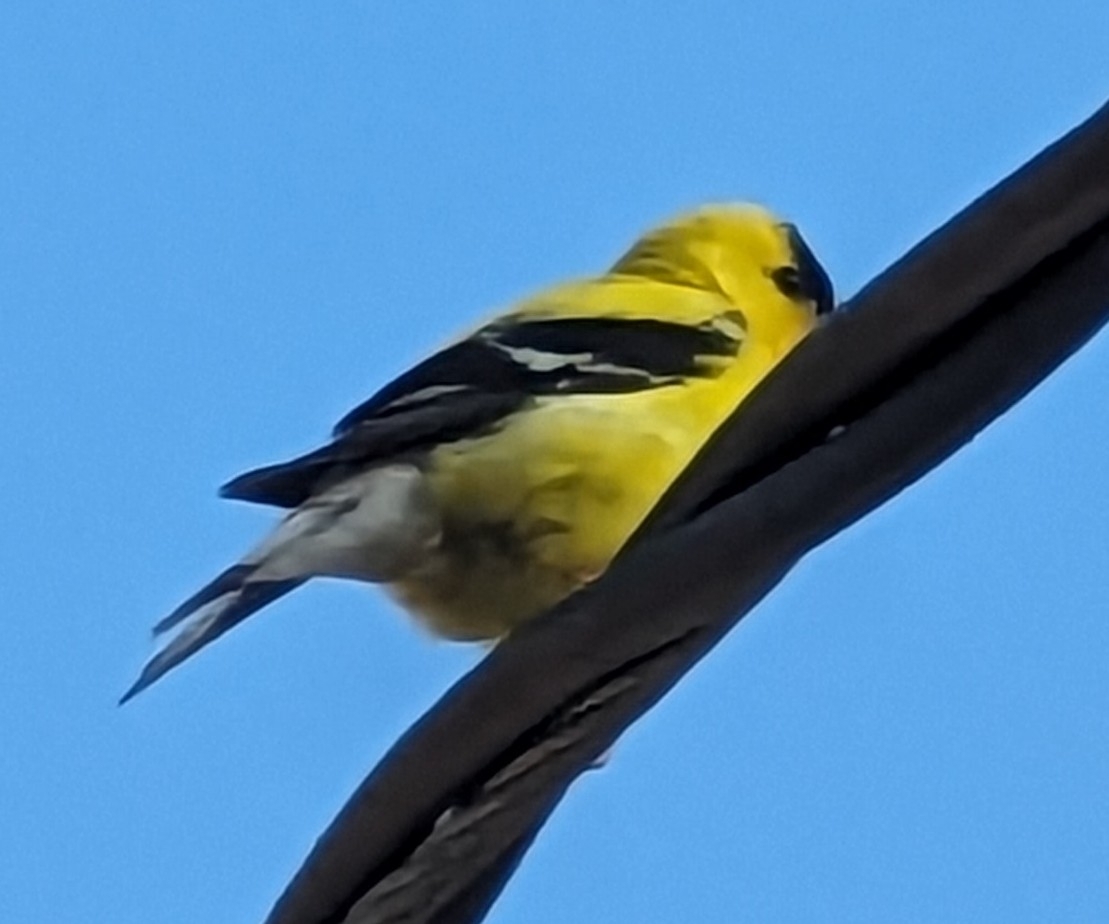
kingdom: Animalia
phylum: Chordata
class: Aves
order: Passeriformes
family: Fringillidae
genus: Spinus
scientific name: Spinus tristis
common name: American goldfinch
